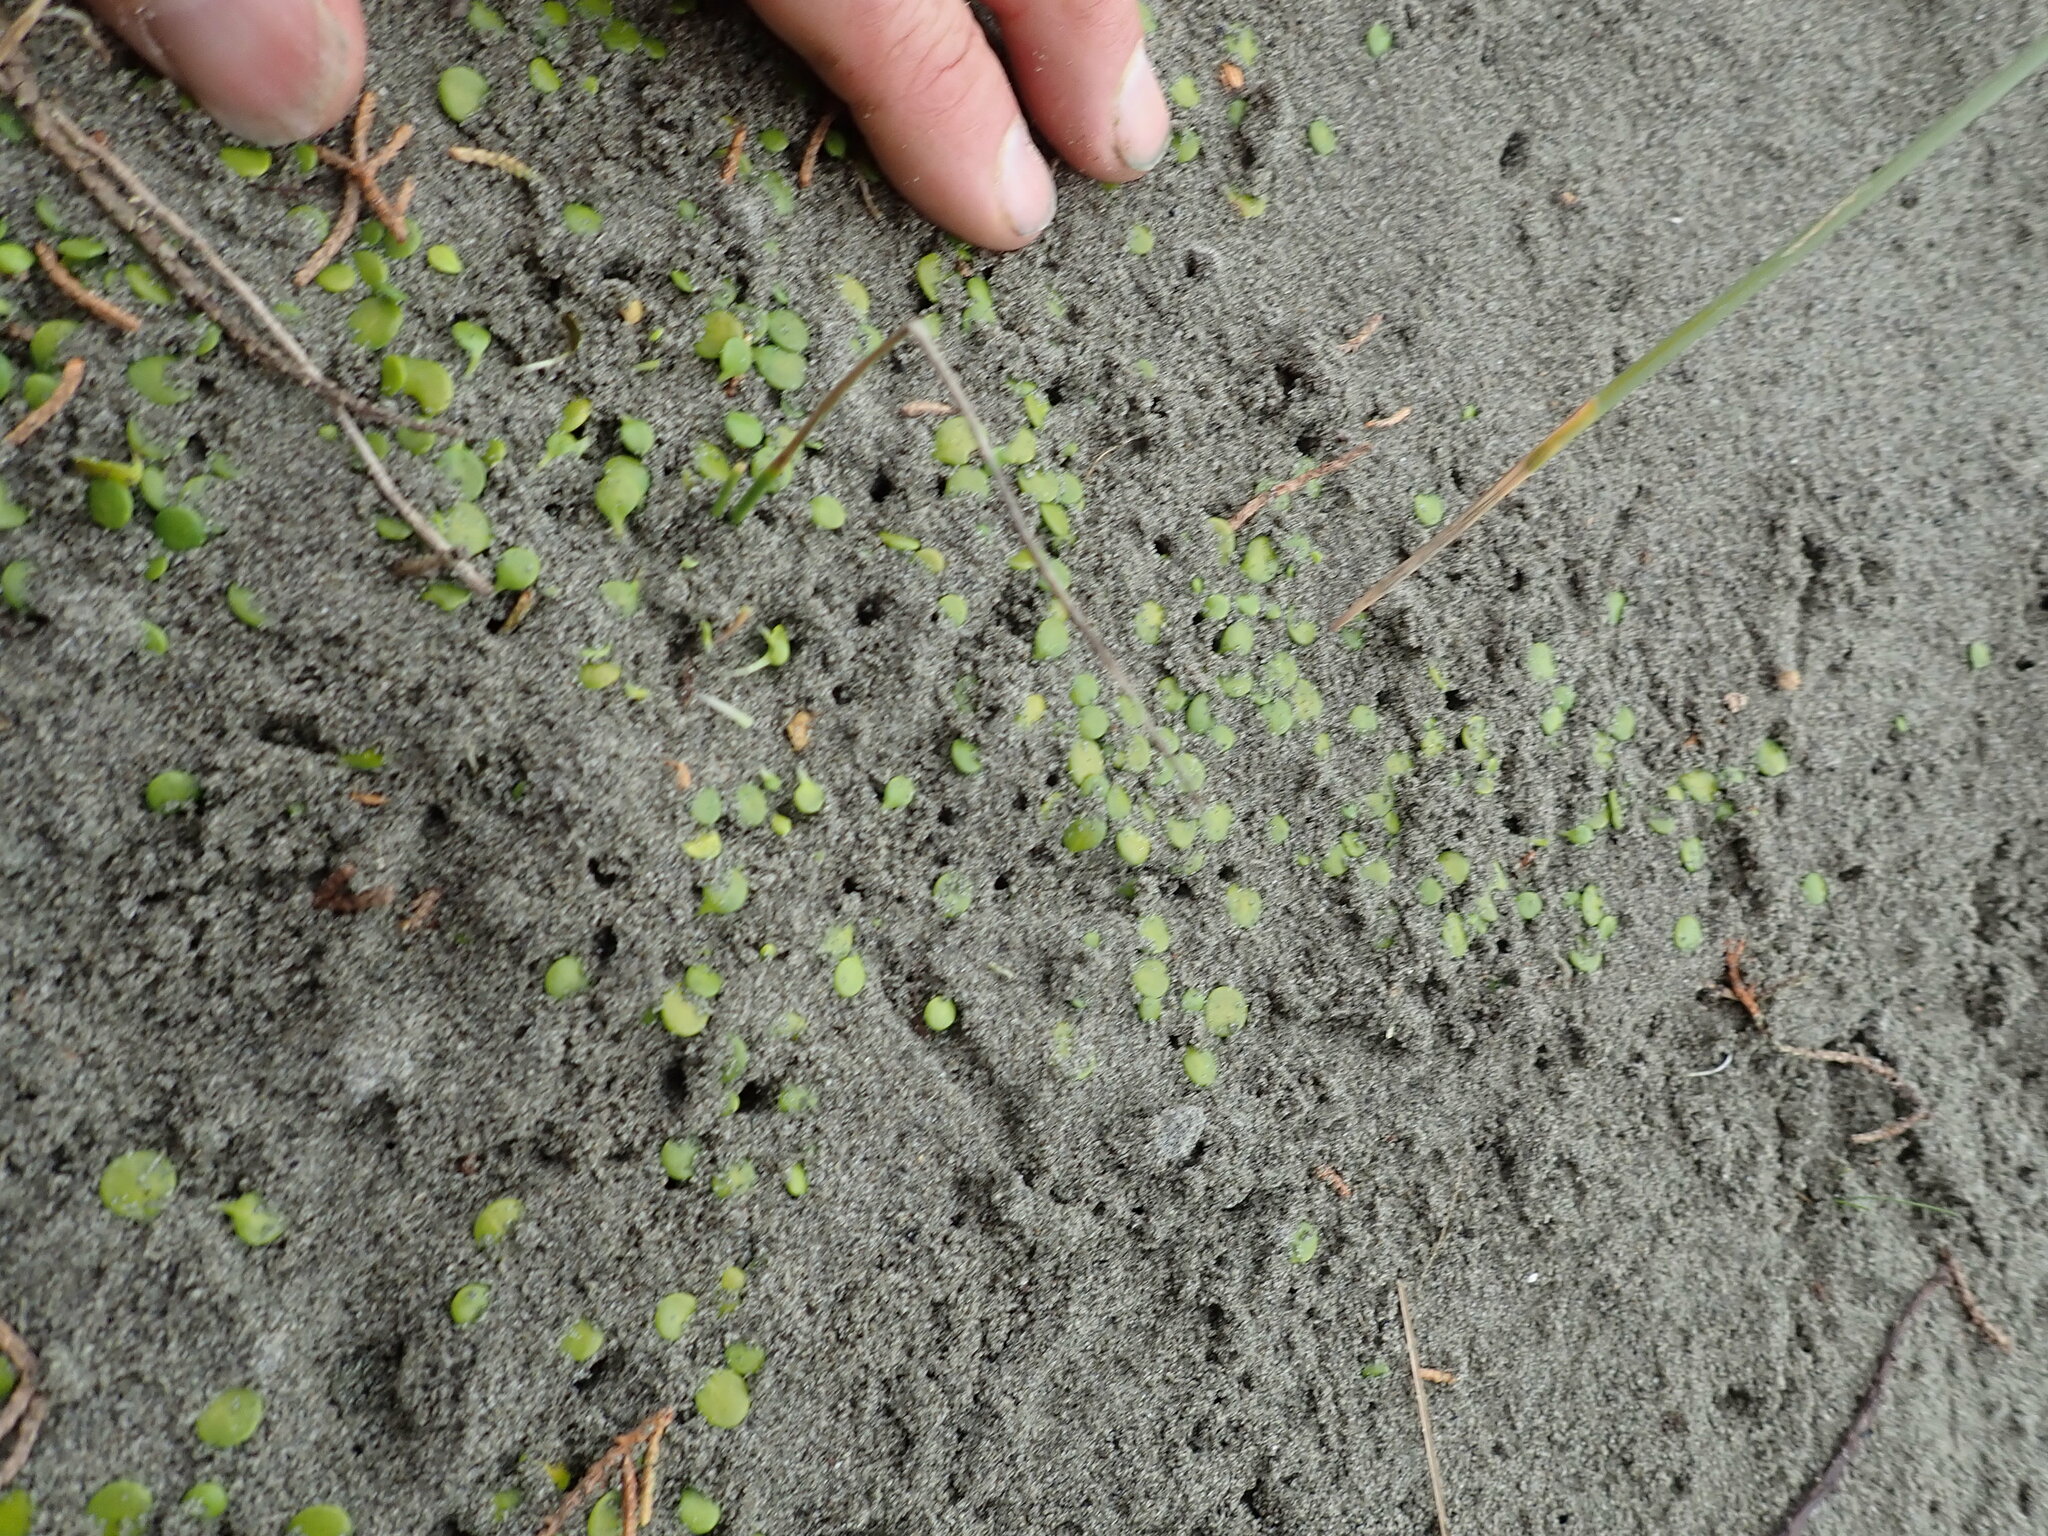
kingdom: Plantae
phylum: Tracheophyta
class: Magnoliopsida
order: Asterales
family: Goodeniaceae
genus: Goodenia
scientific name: Goodenia heenanii
